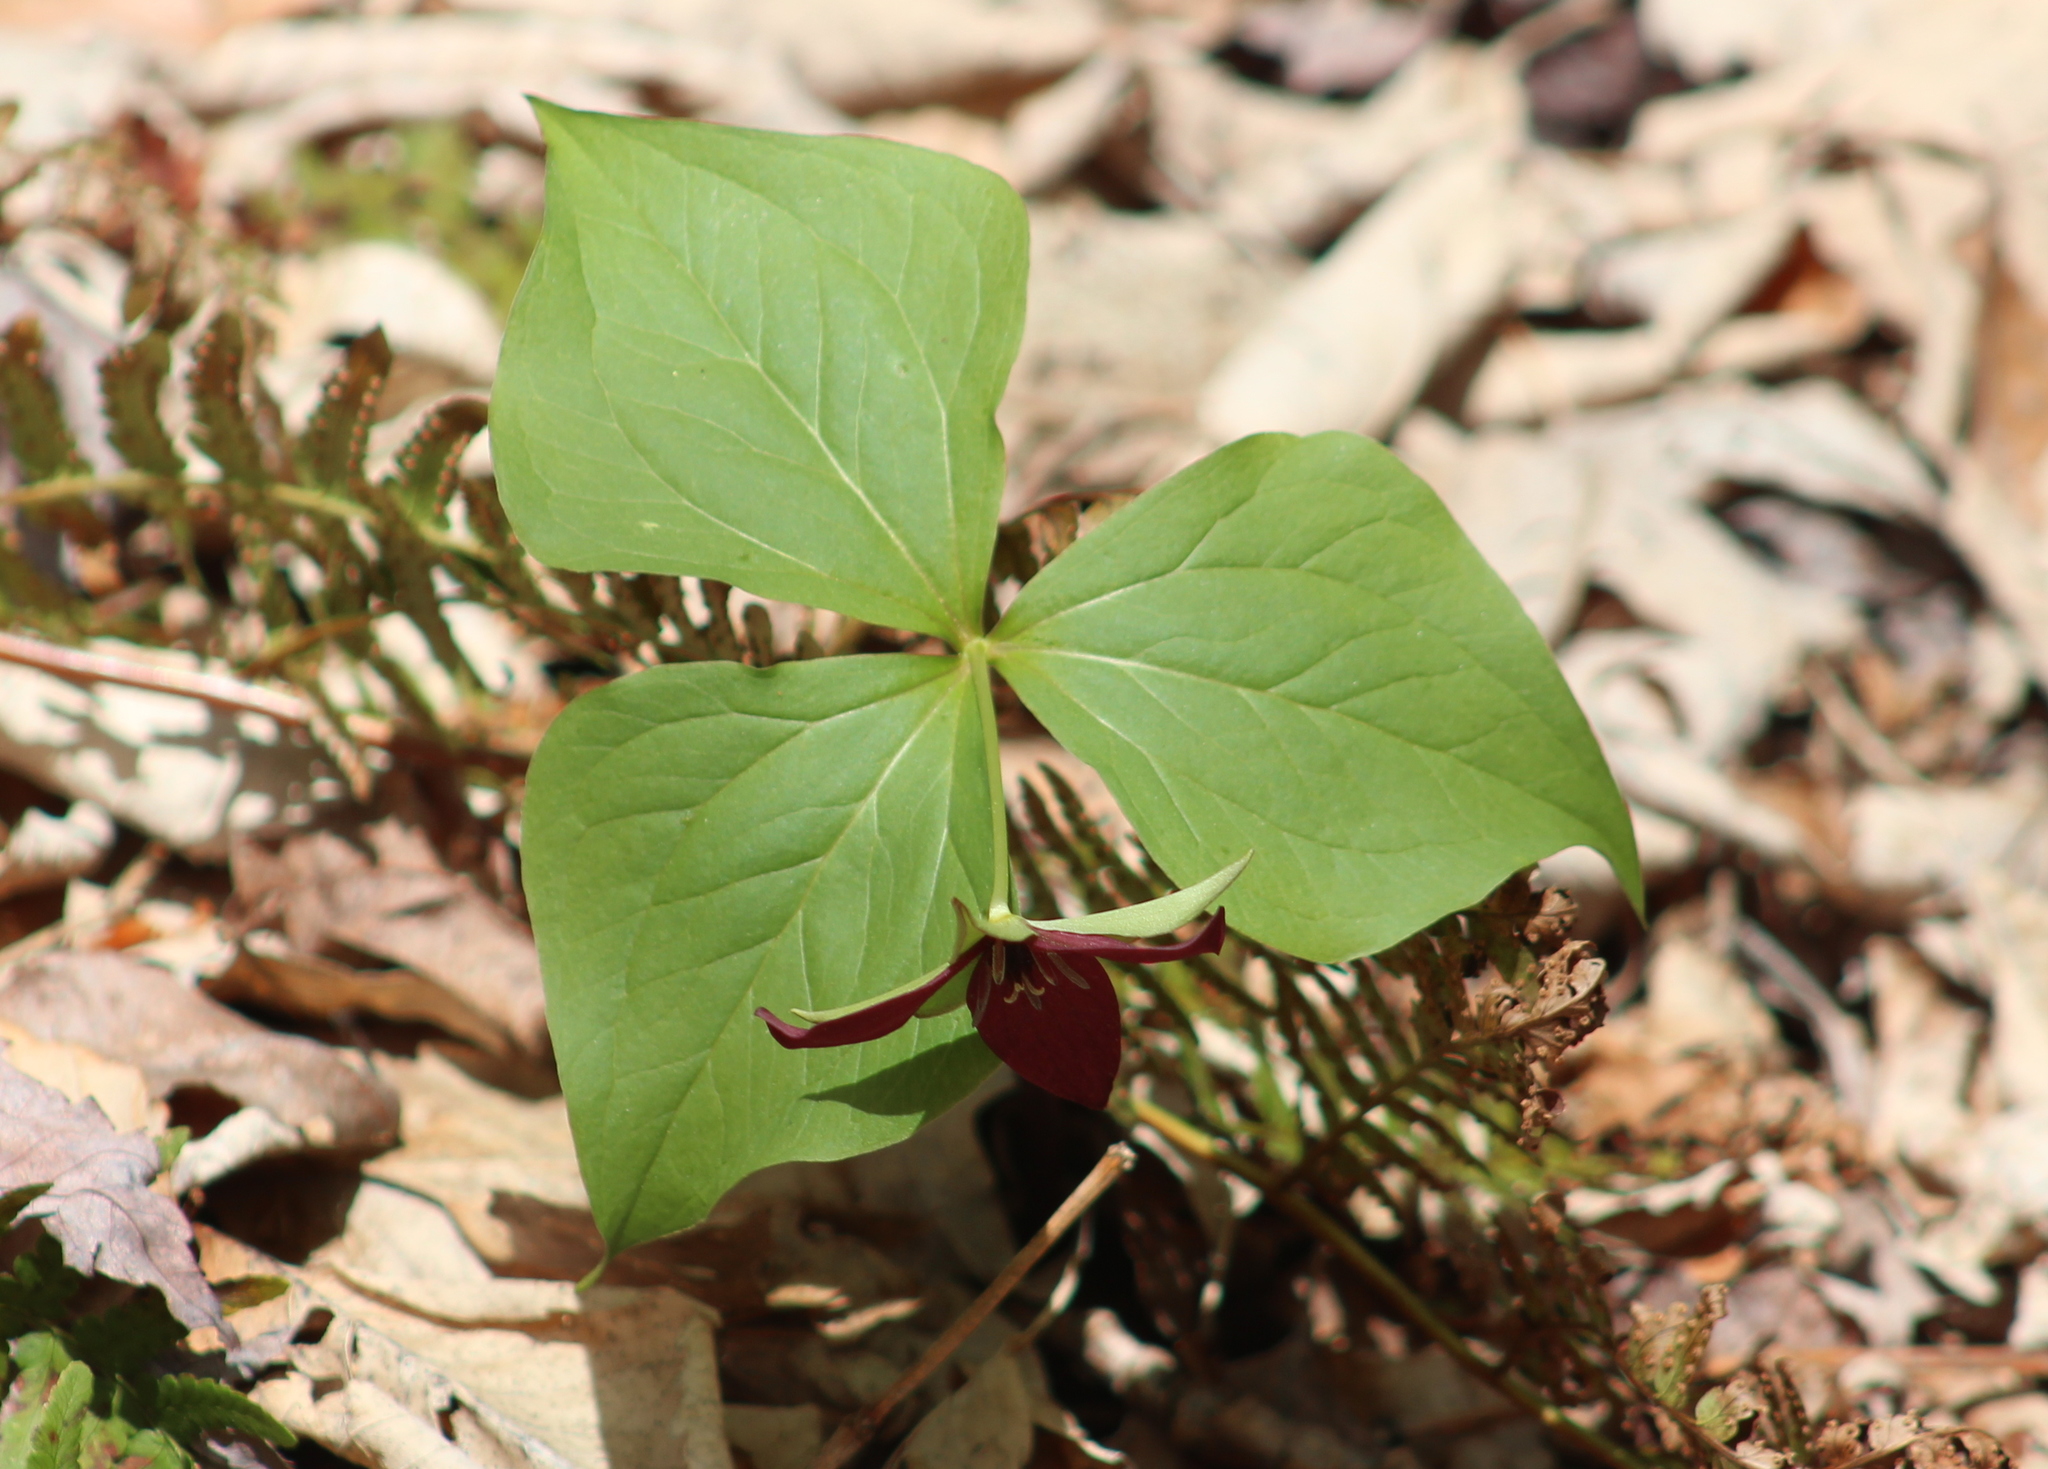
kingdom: Plantae
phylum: Tracheophyta
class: Liliopsida
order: Liliales
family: Melanthiaceae
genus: Trillium
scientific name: Trillium erectum
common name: Purple trillium
